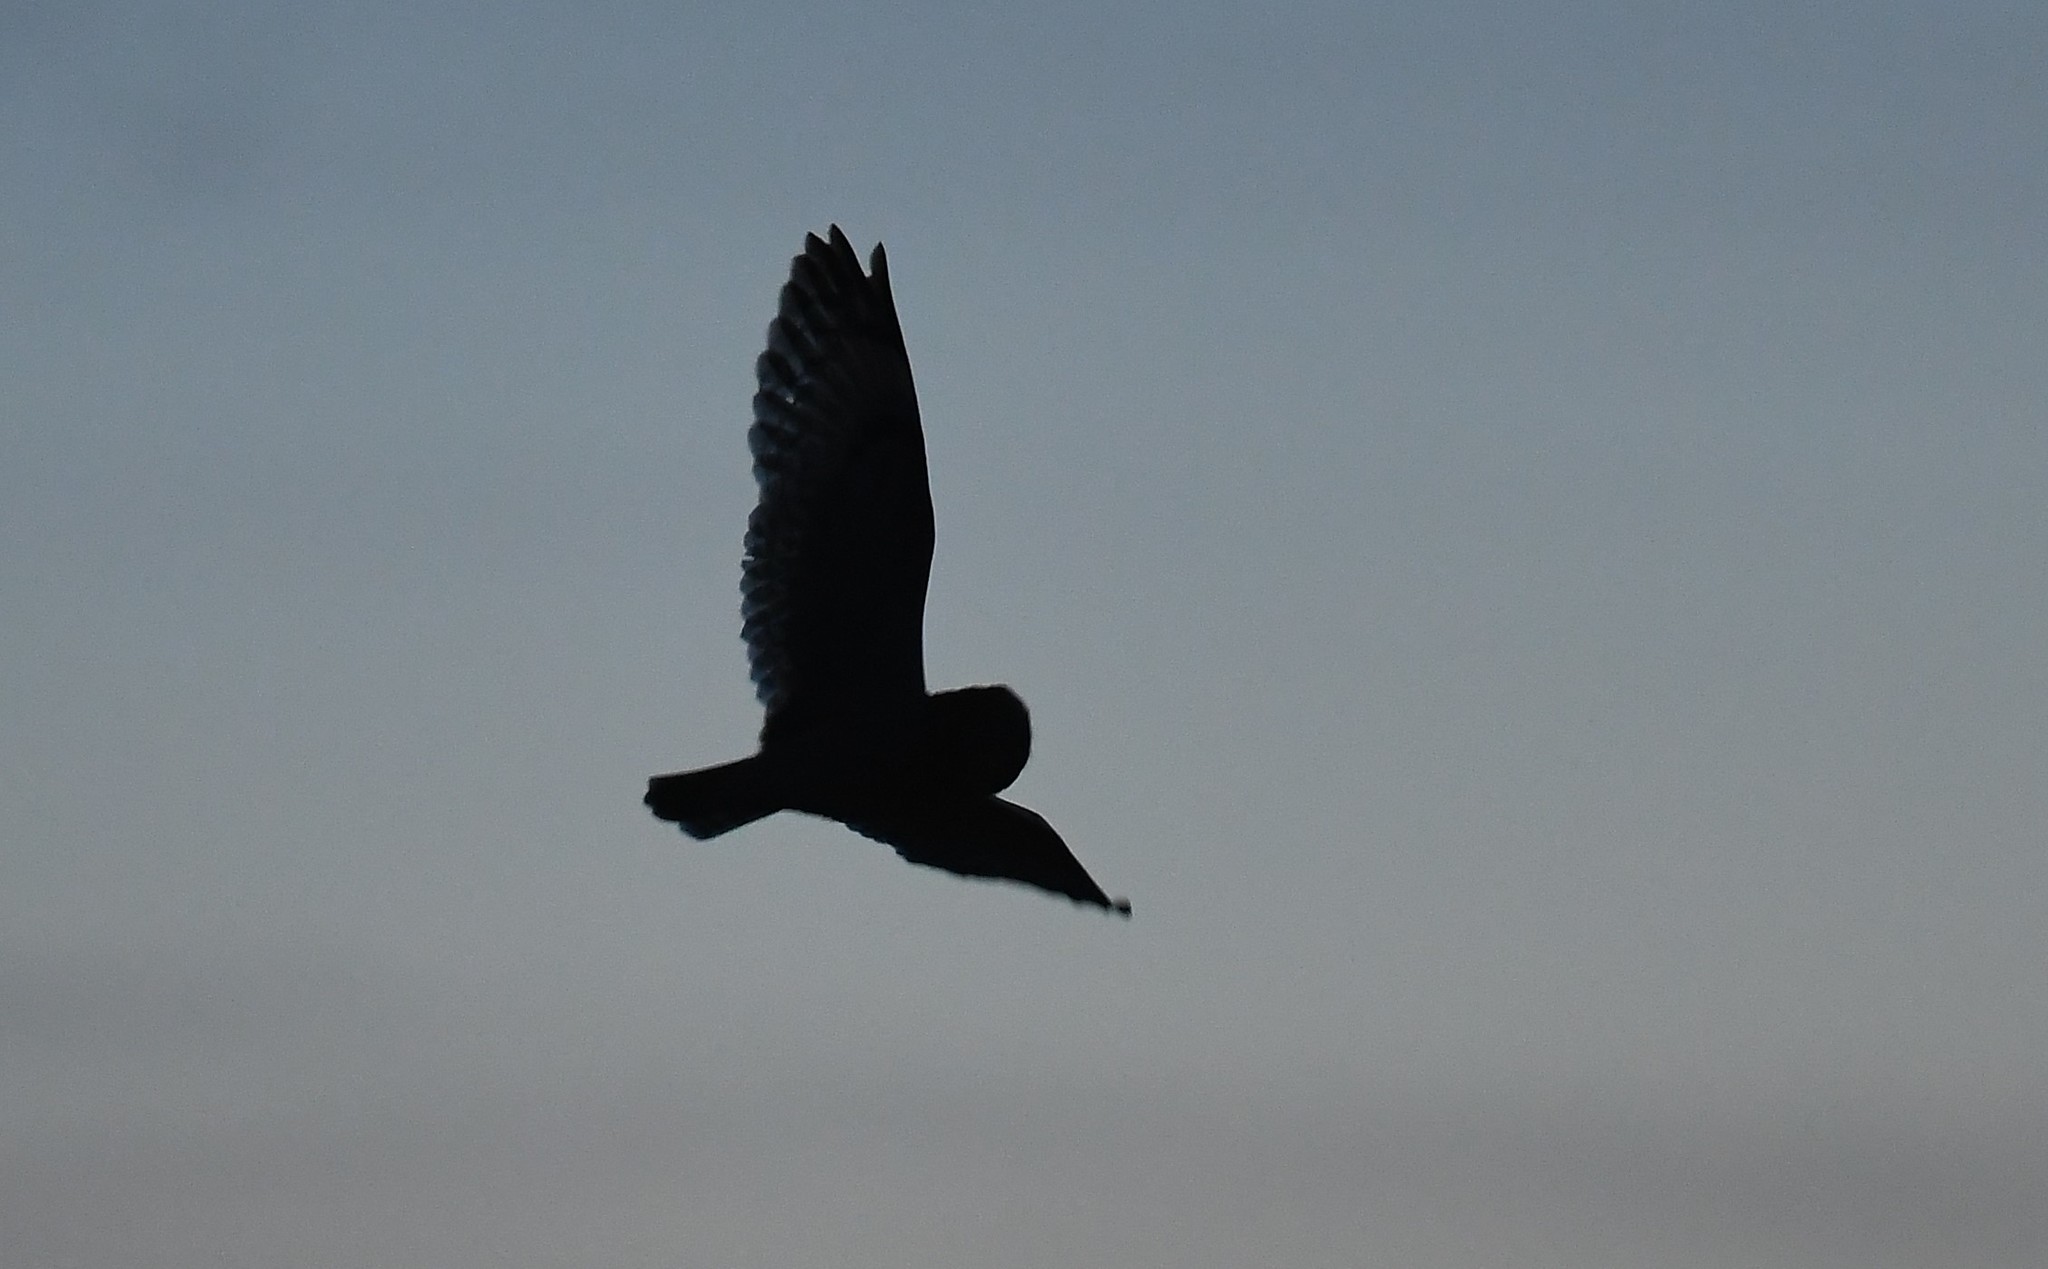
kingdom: Animalia
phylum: Chordata
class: Aves
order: Strigiformes
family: Strigidae
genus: Asio
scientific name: Asio flammeus
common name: Short-eared owl
